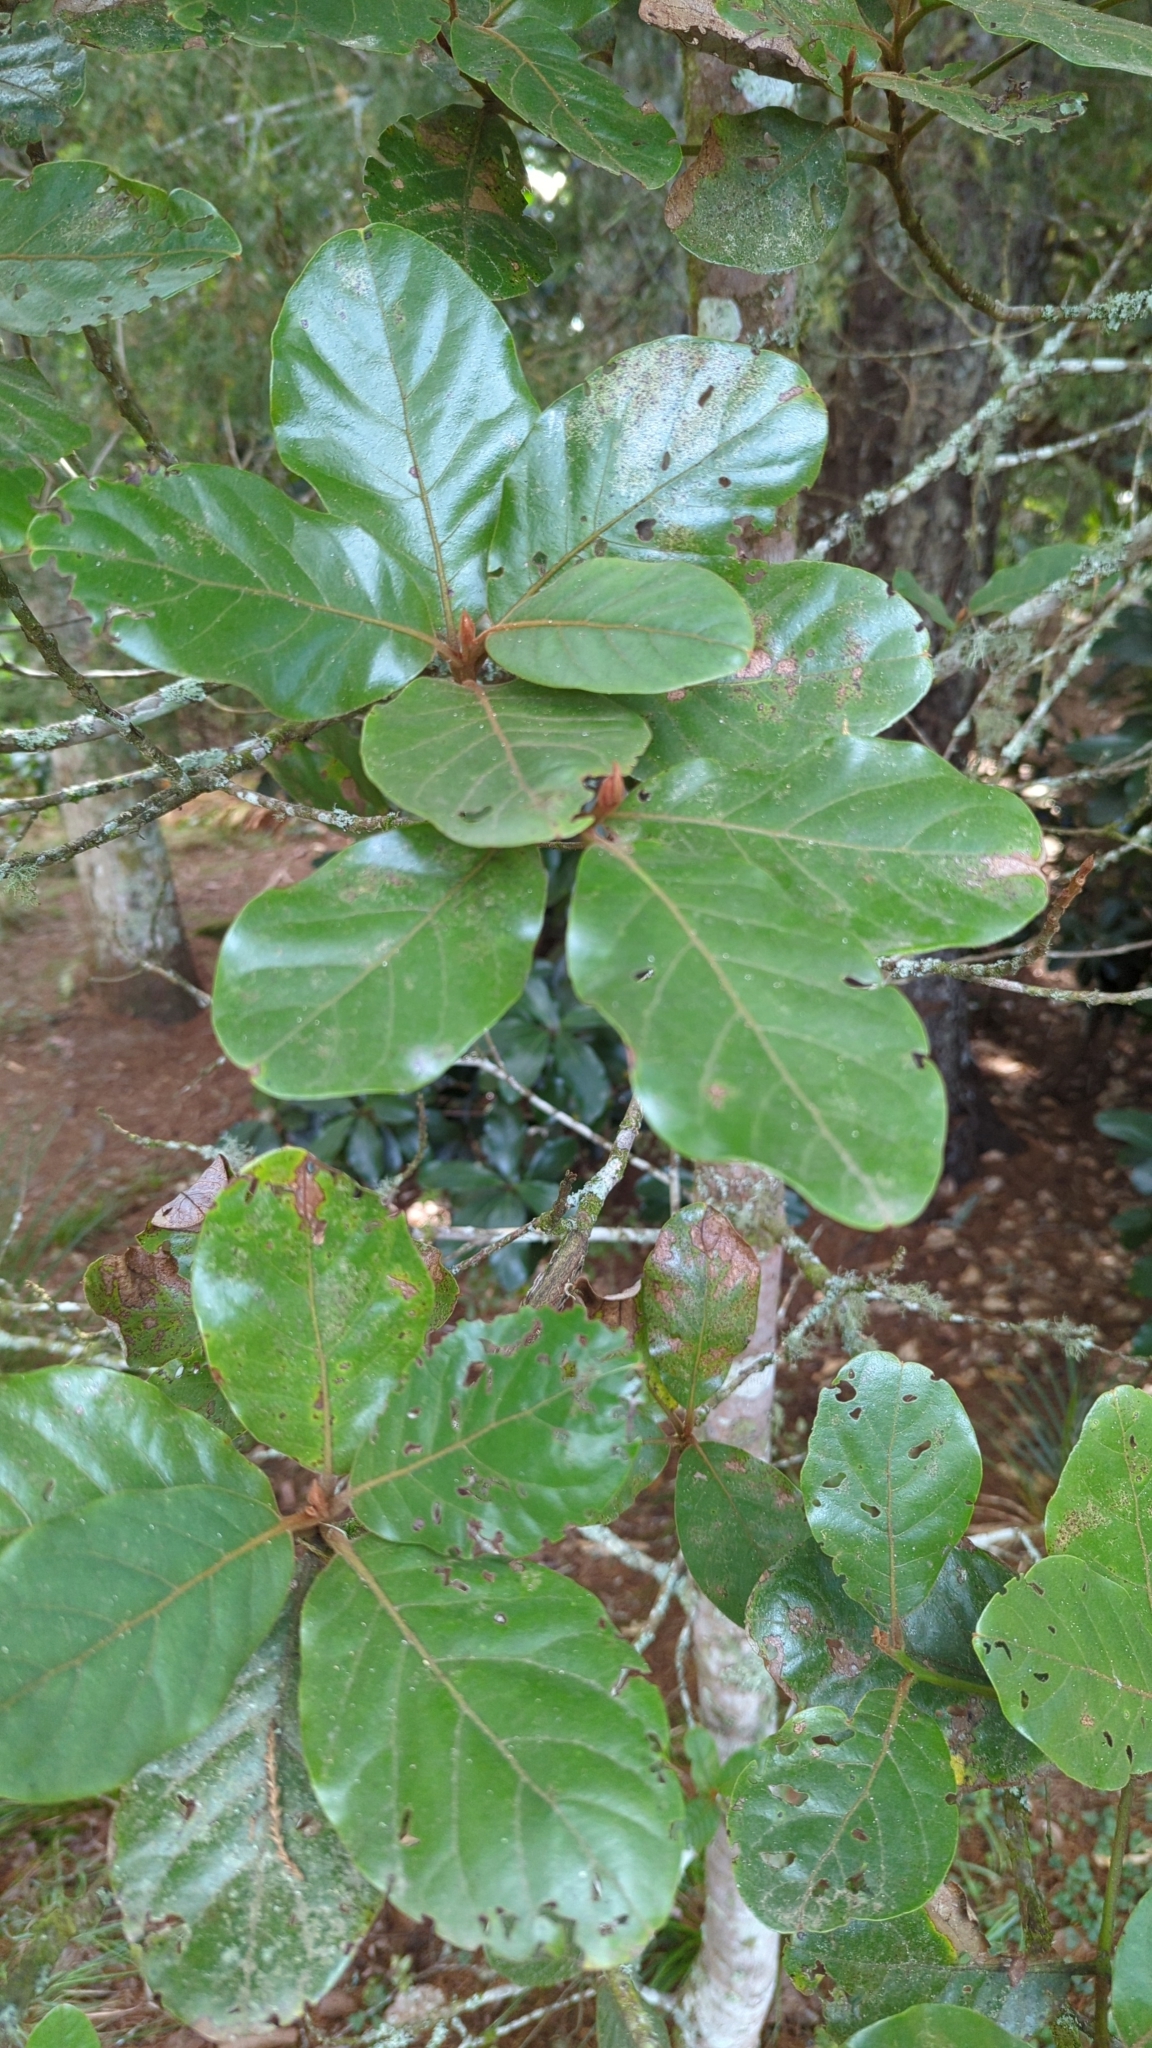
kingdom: Plantae
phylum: Tracheophyta
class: Magnoliopsida
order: Laurales
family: Lauraceae
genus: Beilschmiedia
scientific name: Beilschmiedia tarairi
